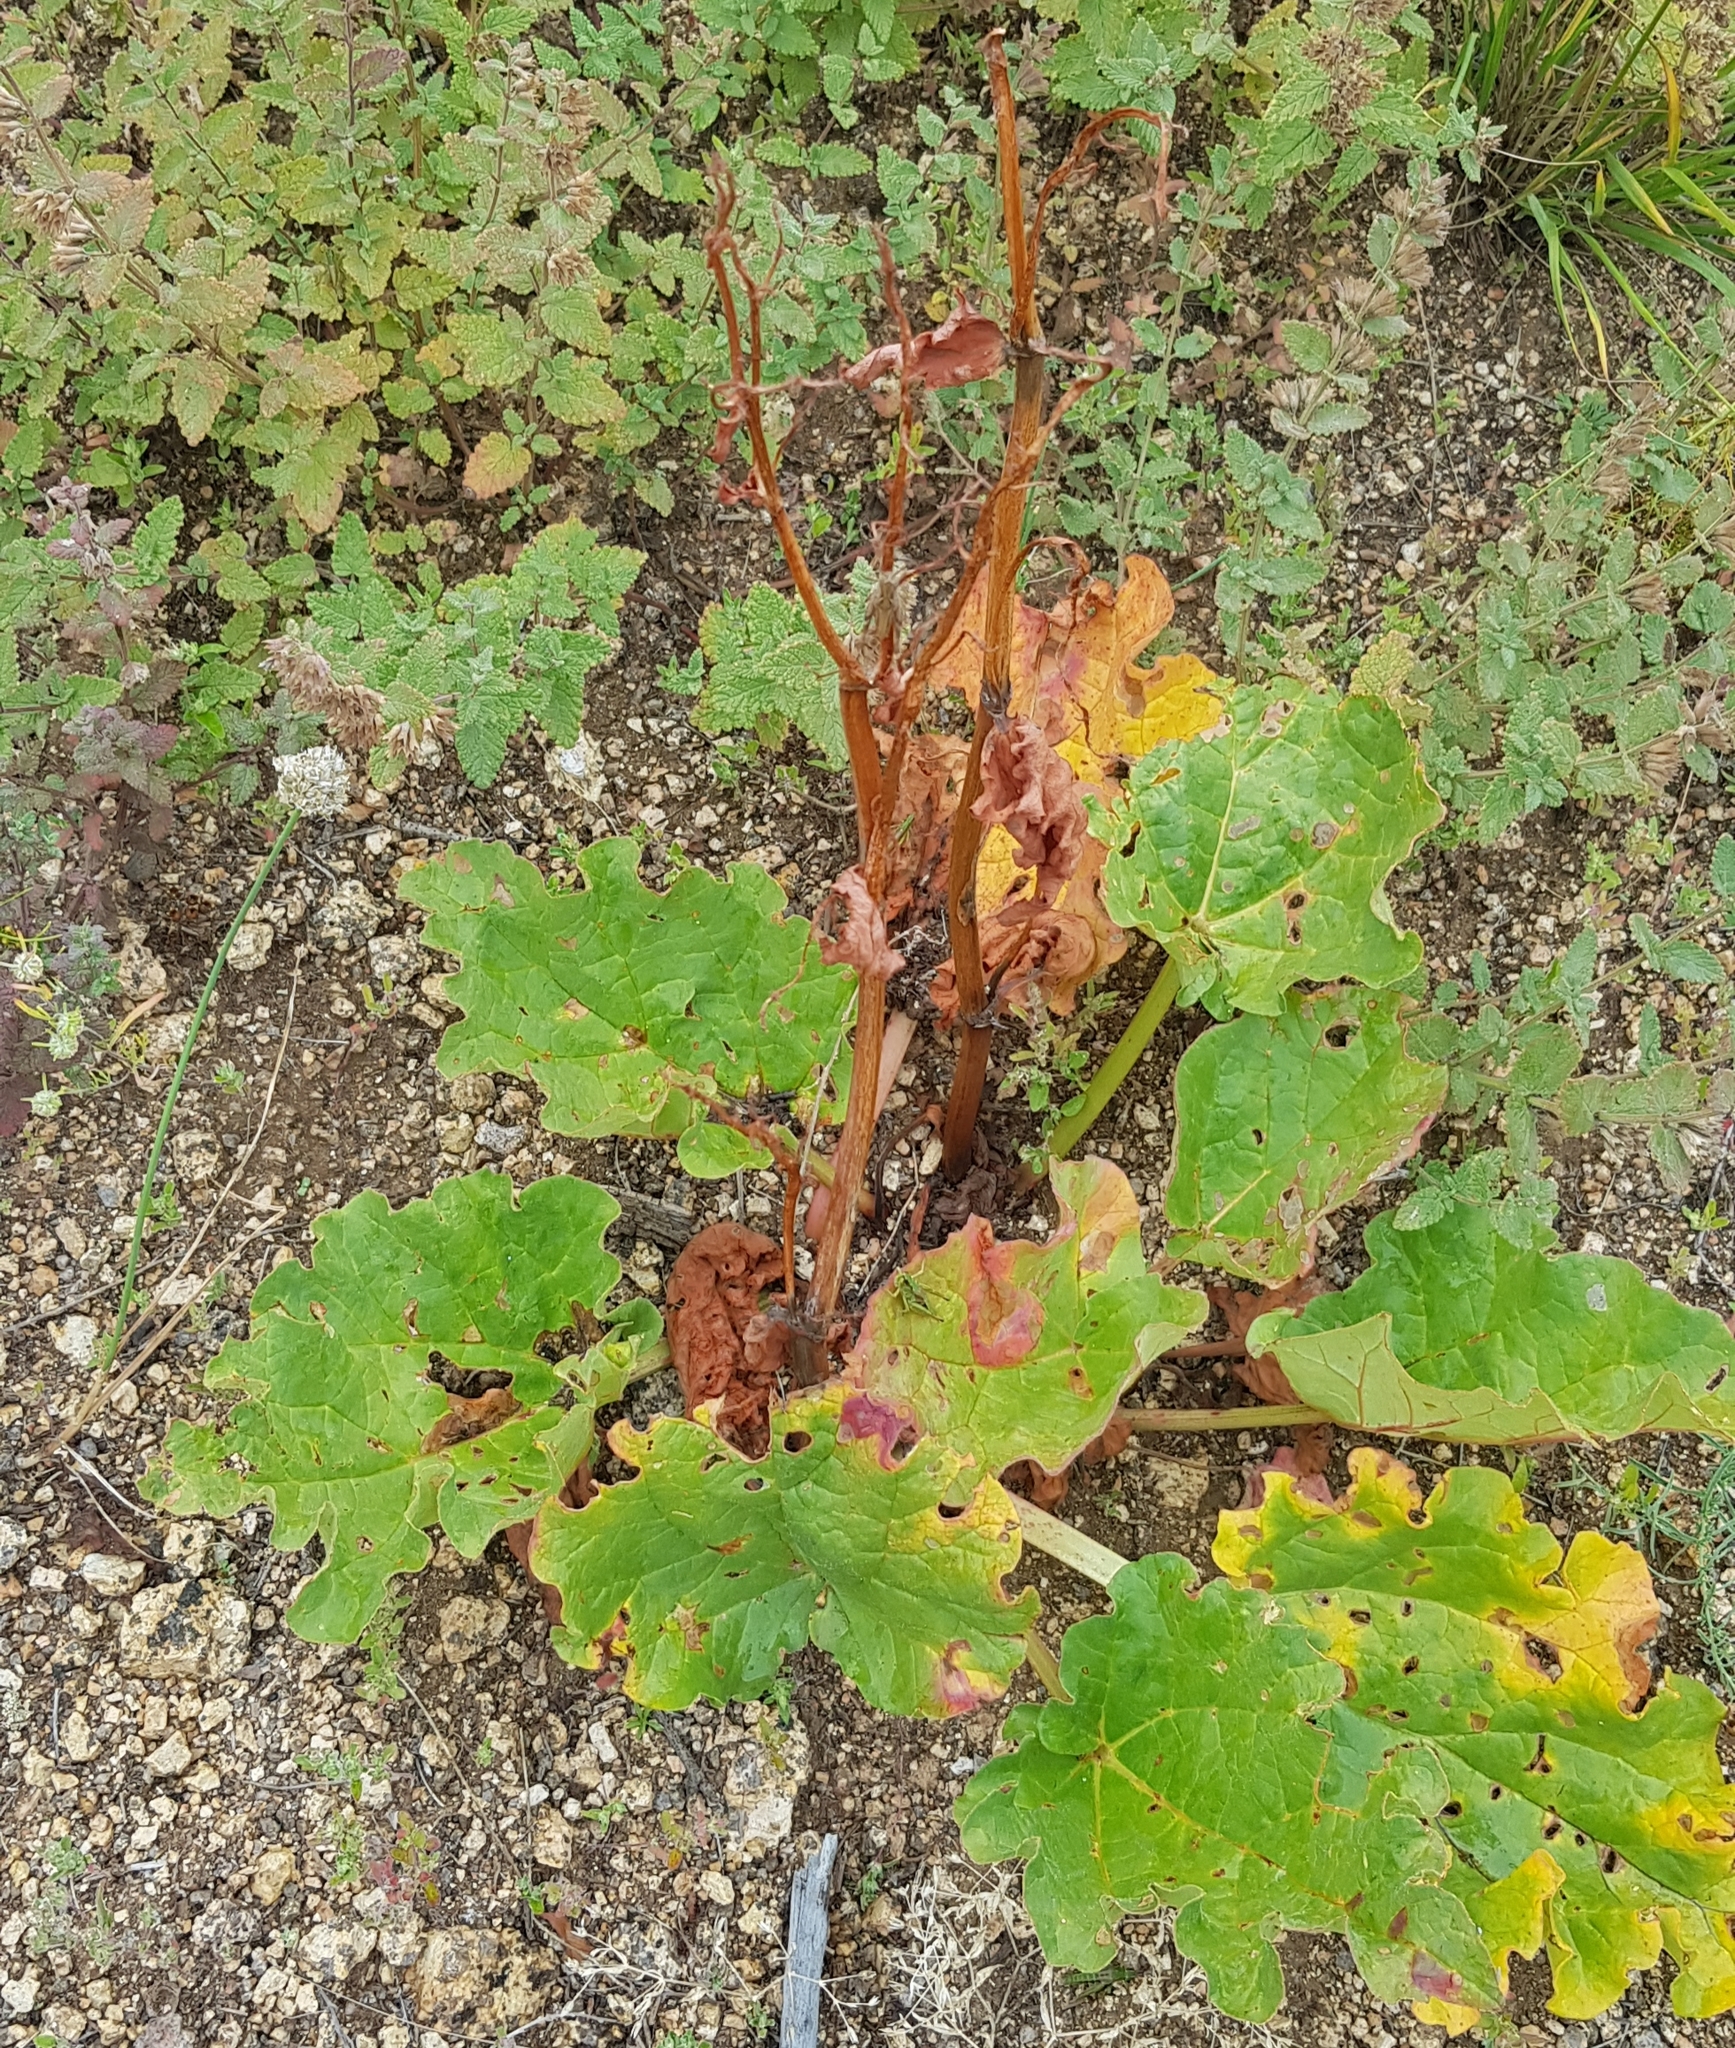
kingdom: Plantae
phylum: Tracheophyta
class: Magnoliopsida
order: Caryophyllales
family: Polygonaceae
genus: Rheum
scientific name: Rheum rhabarbarum
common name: Garden rhubarb
